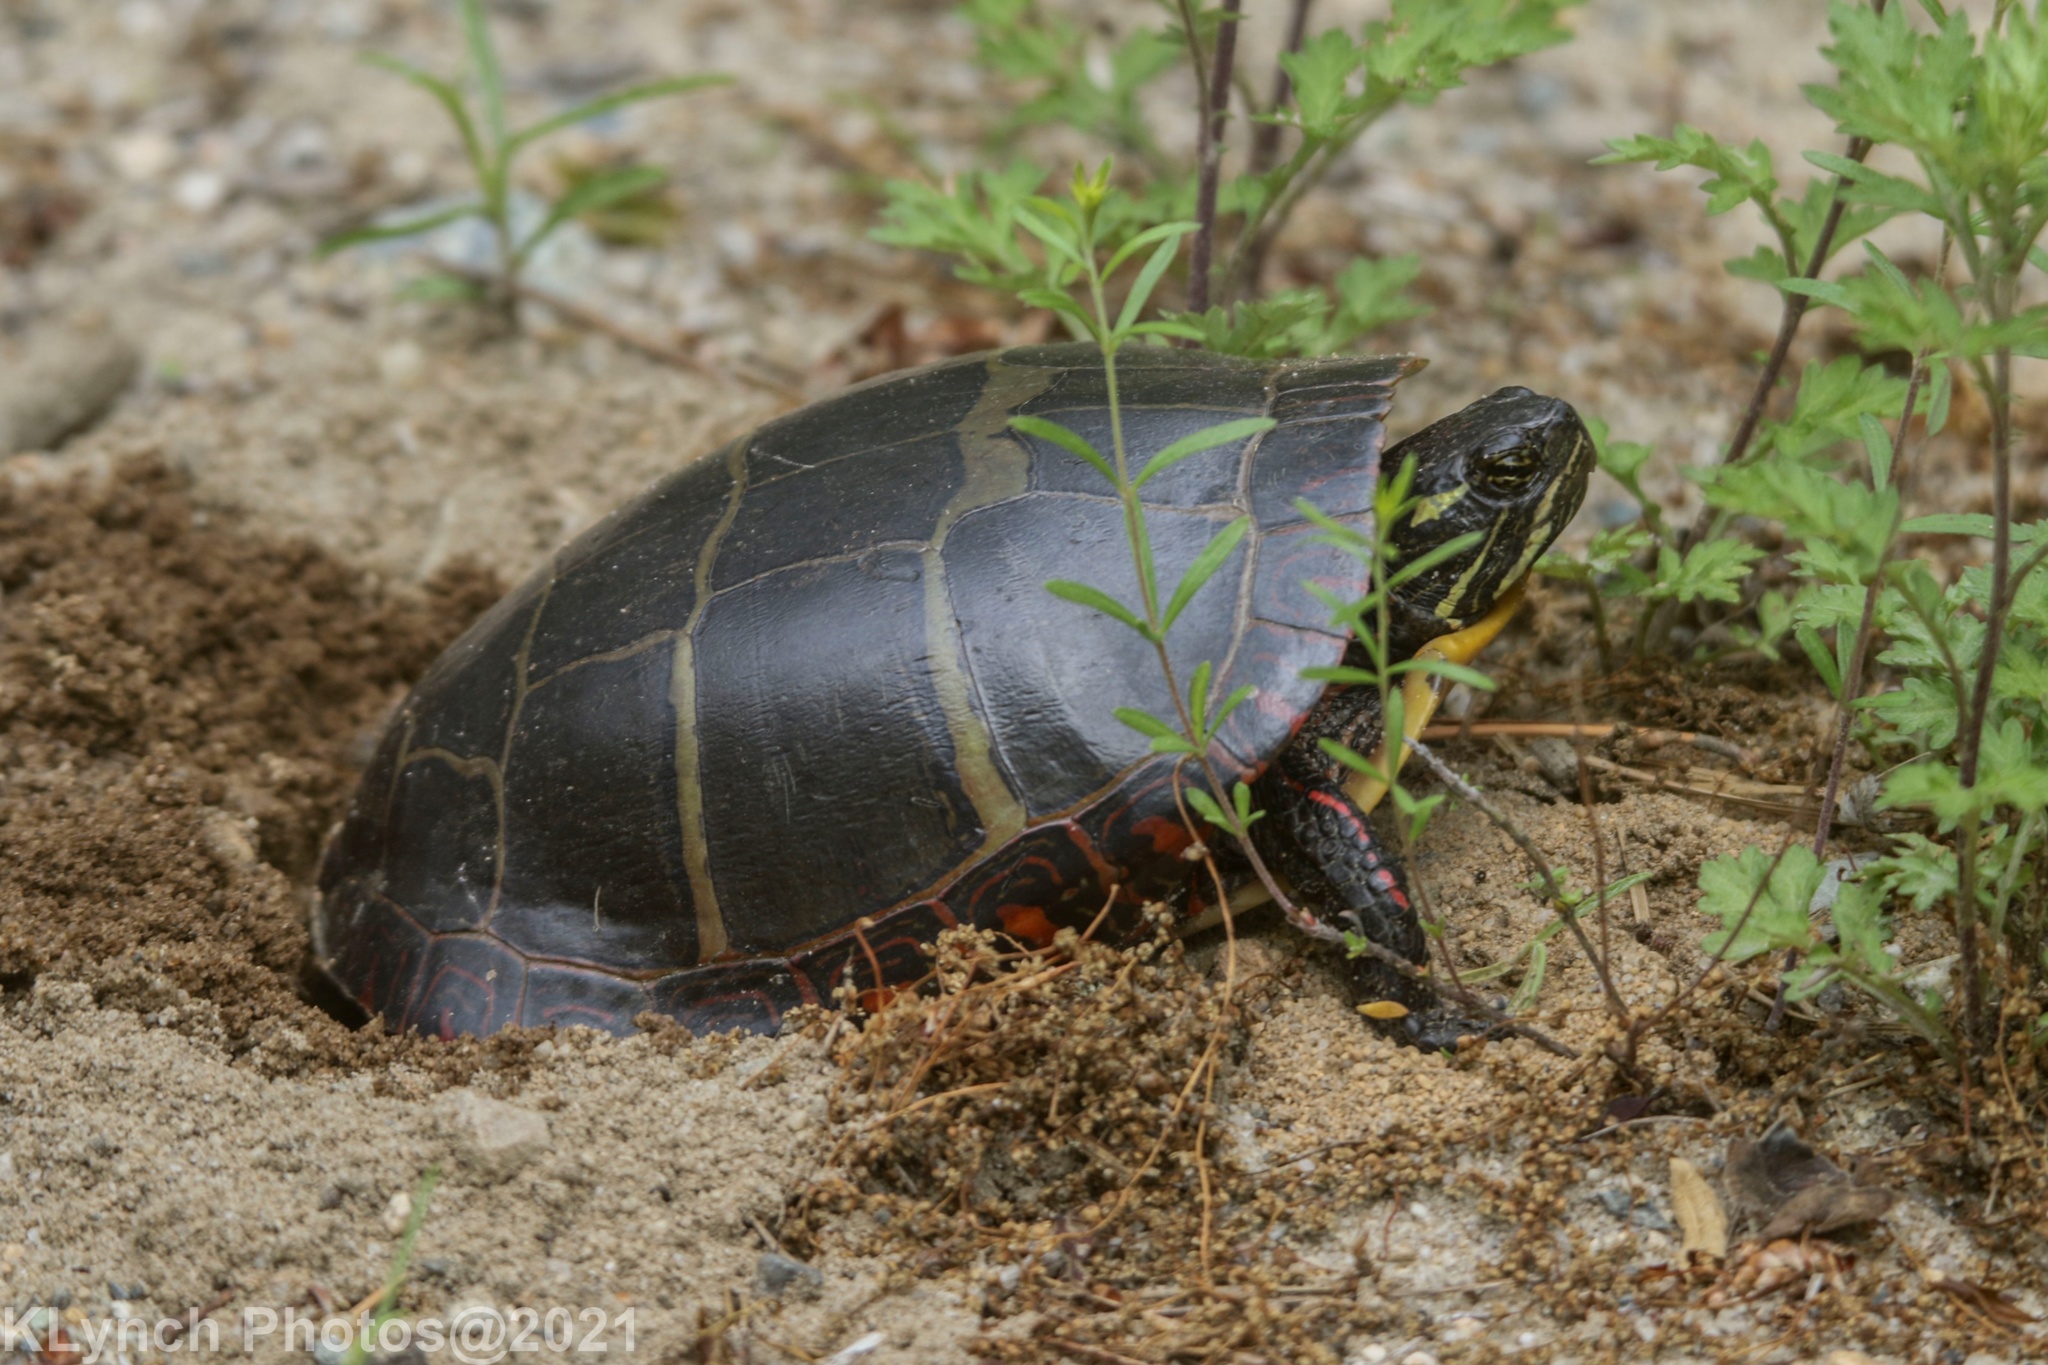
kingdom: Animalia
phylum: Chordata
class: Testudines
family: Emydidae
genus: Chrysemys
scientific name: Chrysemys picta
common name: Painted turtle
